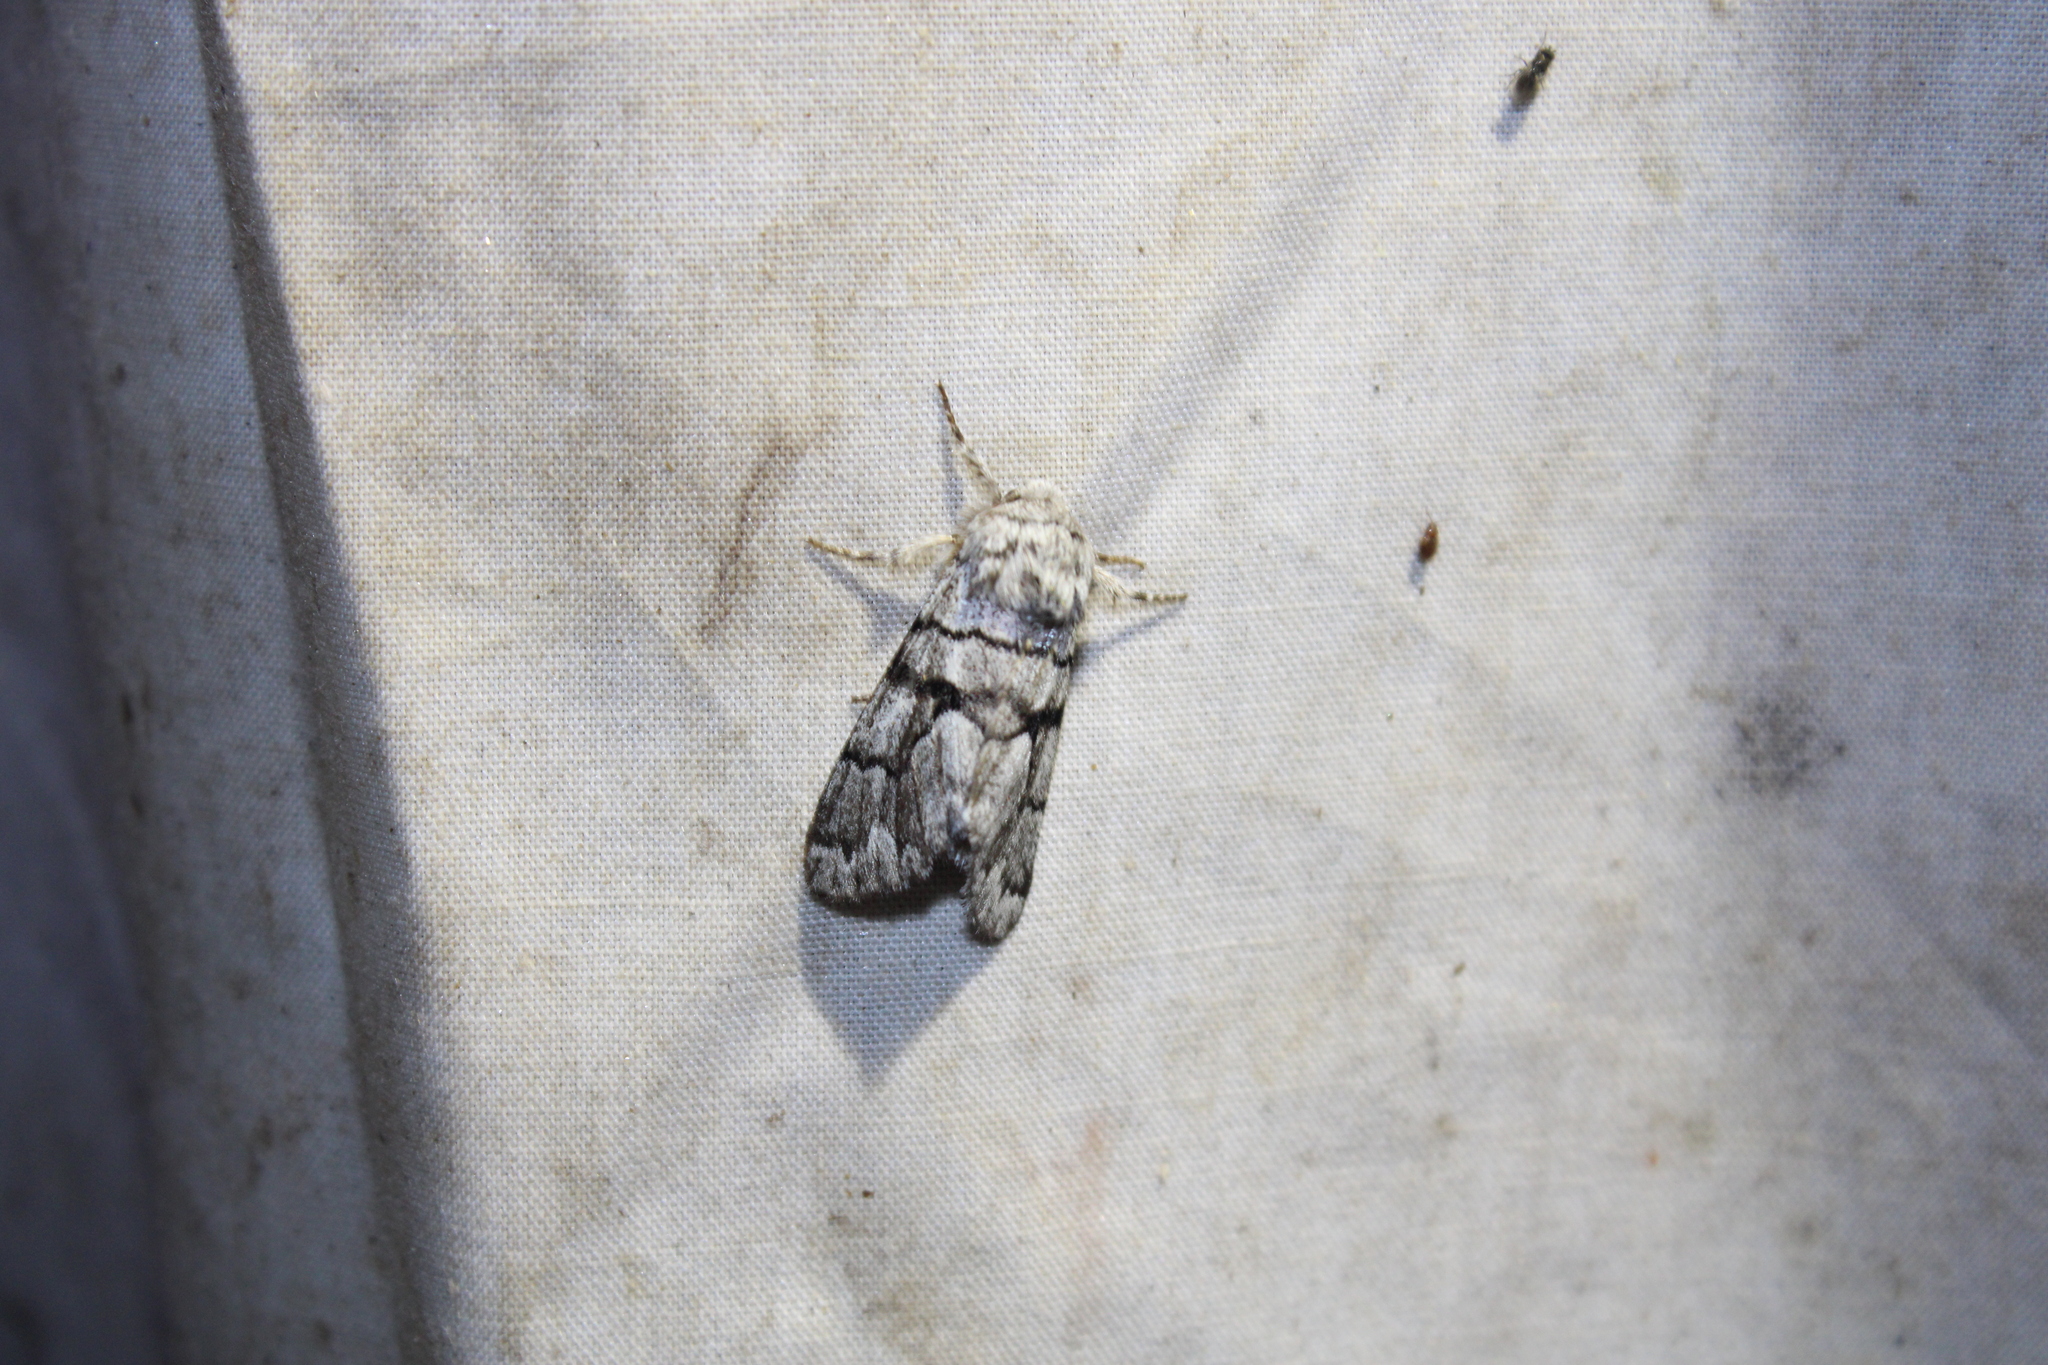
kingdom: Animalia
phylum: Arthropoda
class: Insecta
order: Lepidoptera
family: Noctuidae
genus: Panthea
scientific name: Panthea furcilla
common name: Eastern panthea moth
